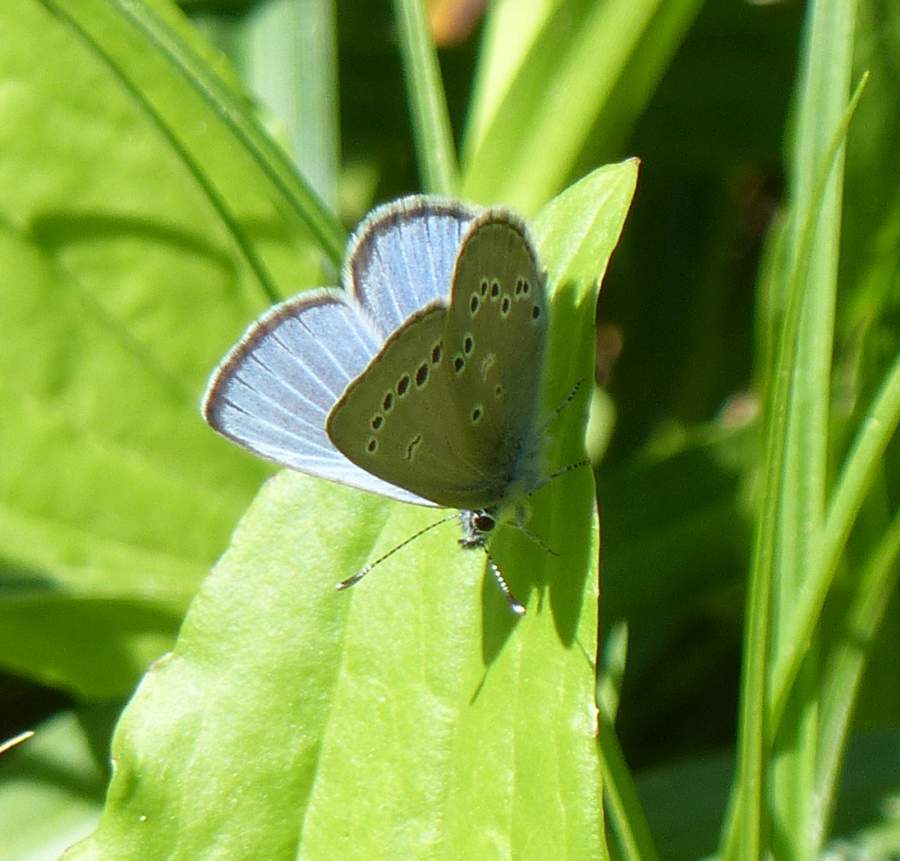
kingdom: Animalia
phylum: Arthropoda
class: Insecta
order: Lepidoptera
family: Lycaenidae
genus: Glaucopsyche
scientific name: Glaucopsyche lygdamus
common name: Silvery blue
